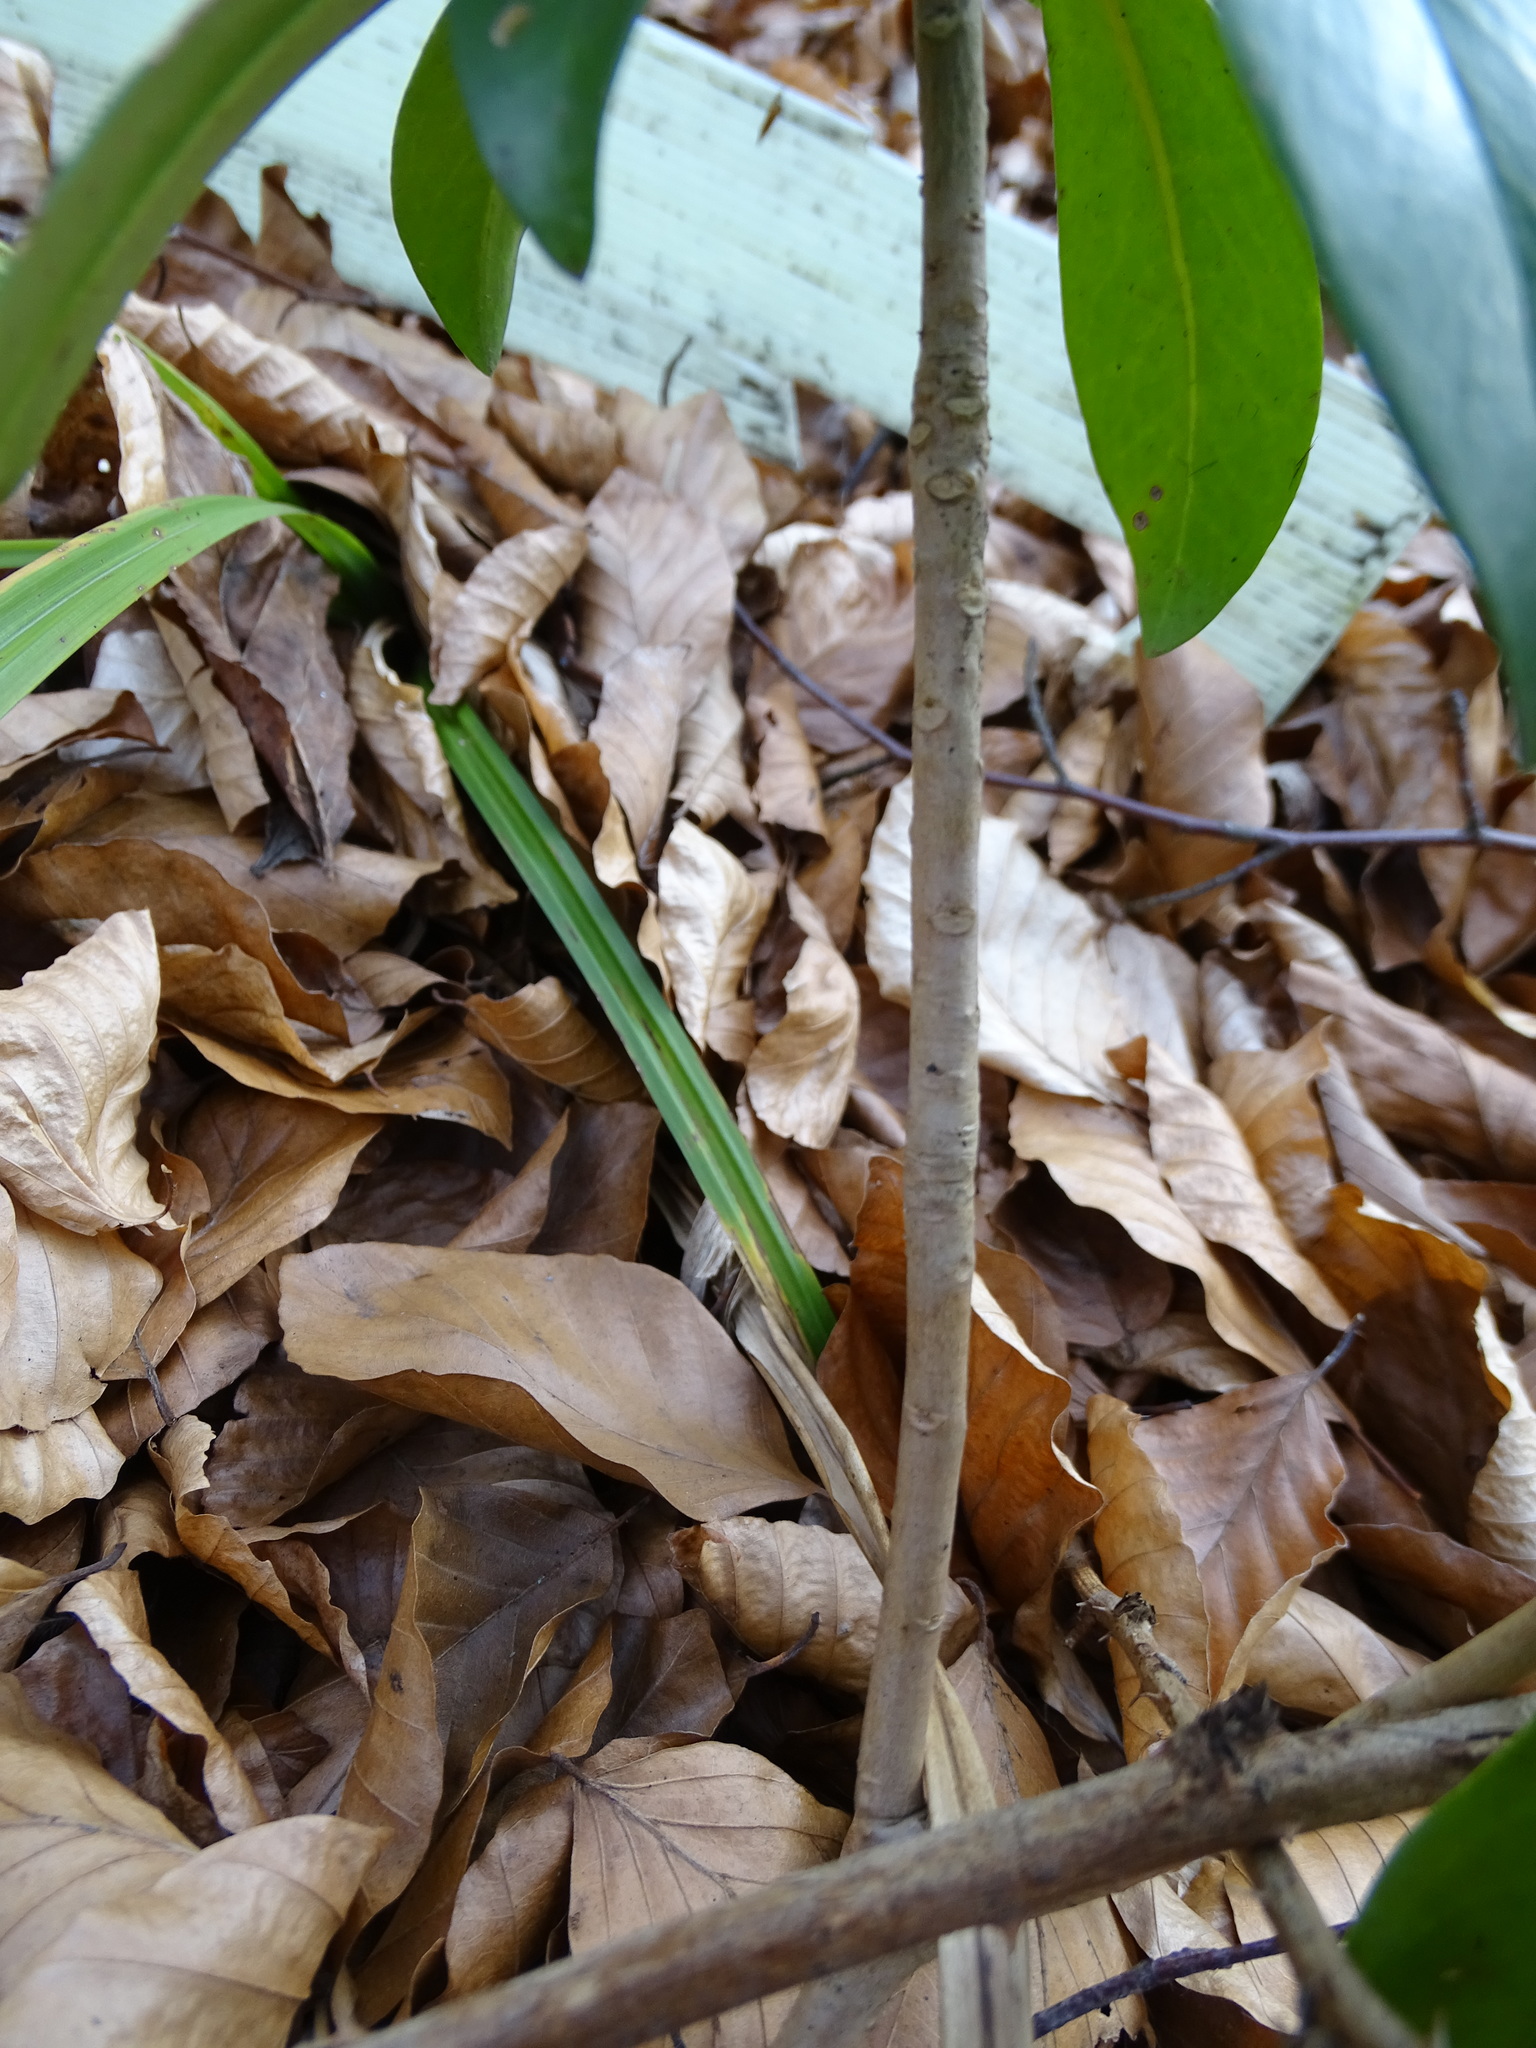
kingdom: Plantae
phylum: Tracheophyta
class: Magnoliopsida
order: Malvales
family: Thymelaeaceae
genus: Daphne
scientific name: Daphne laureola
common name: Spurge-laurel
